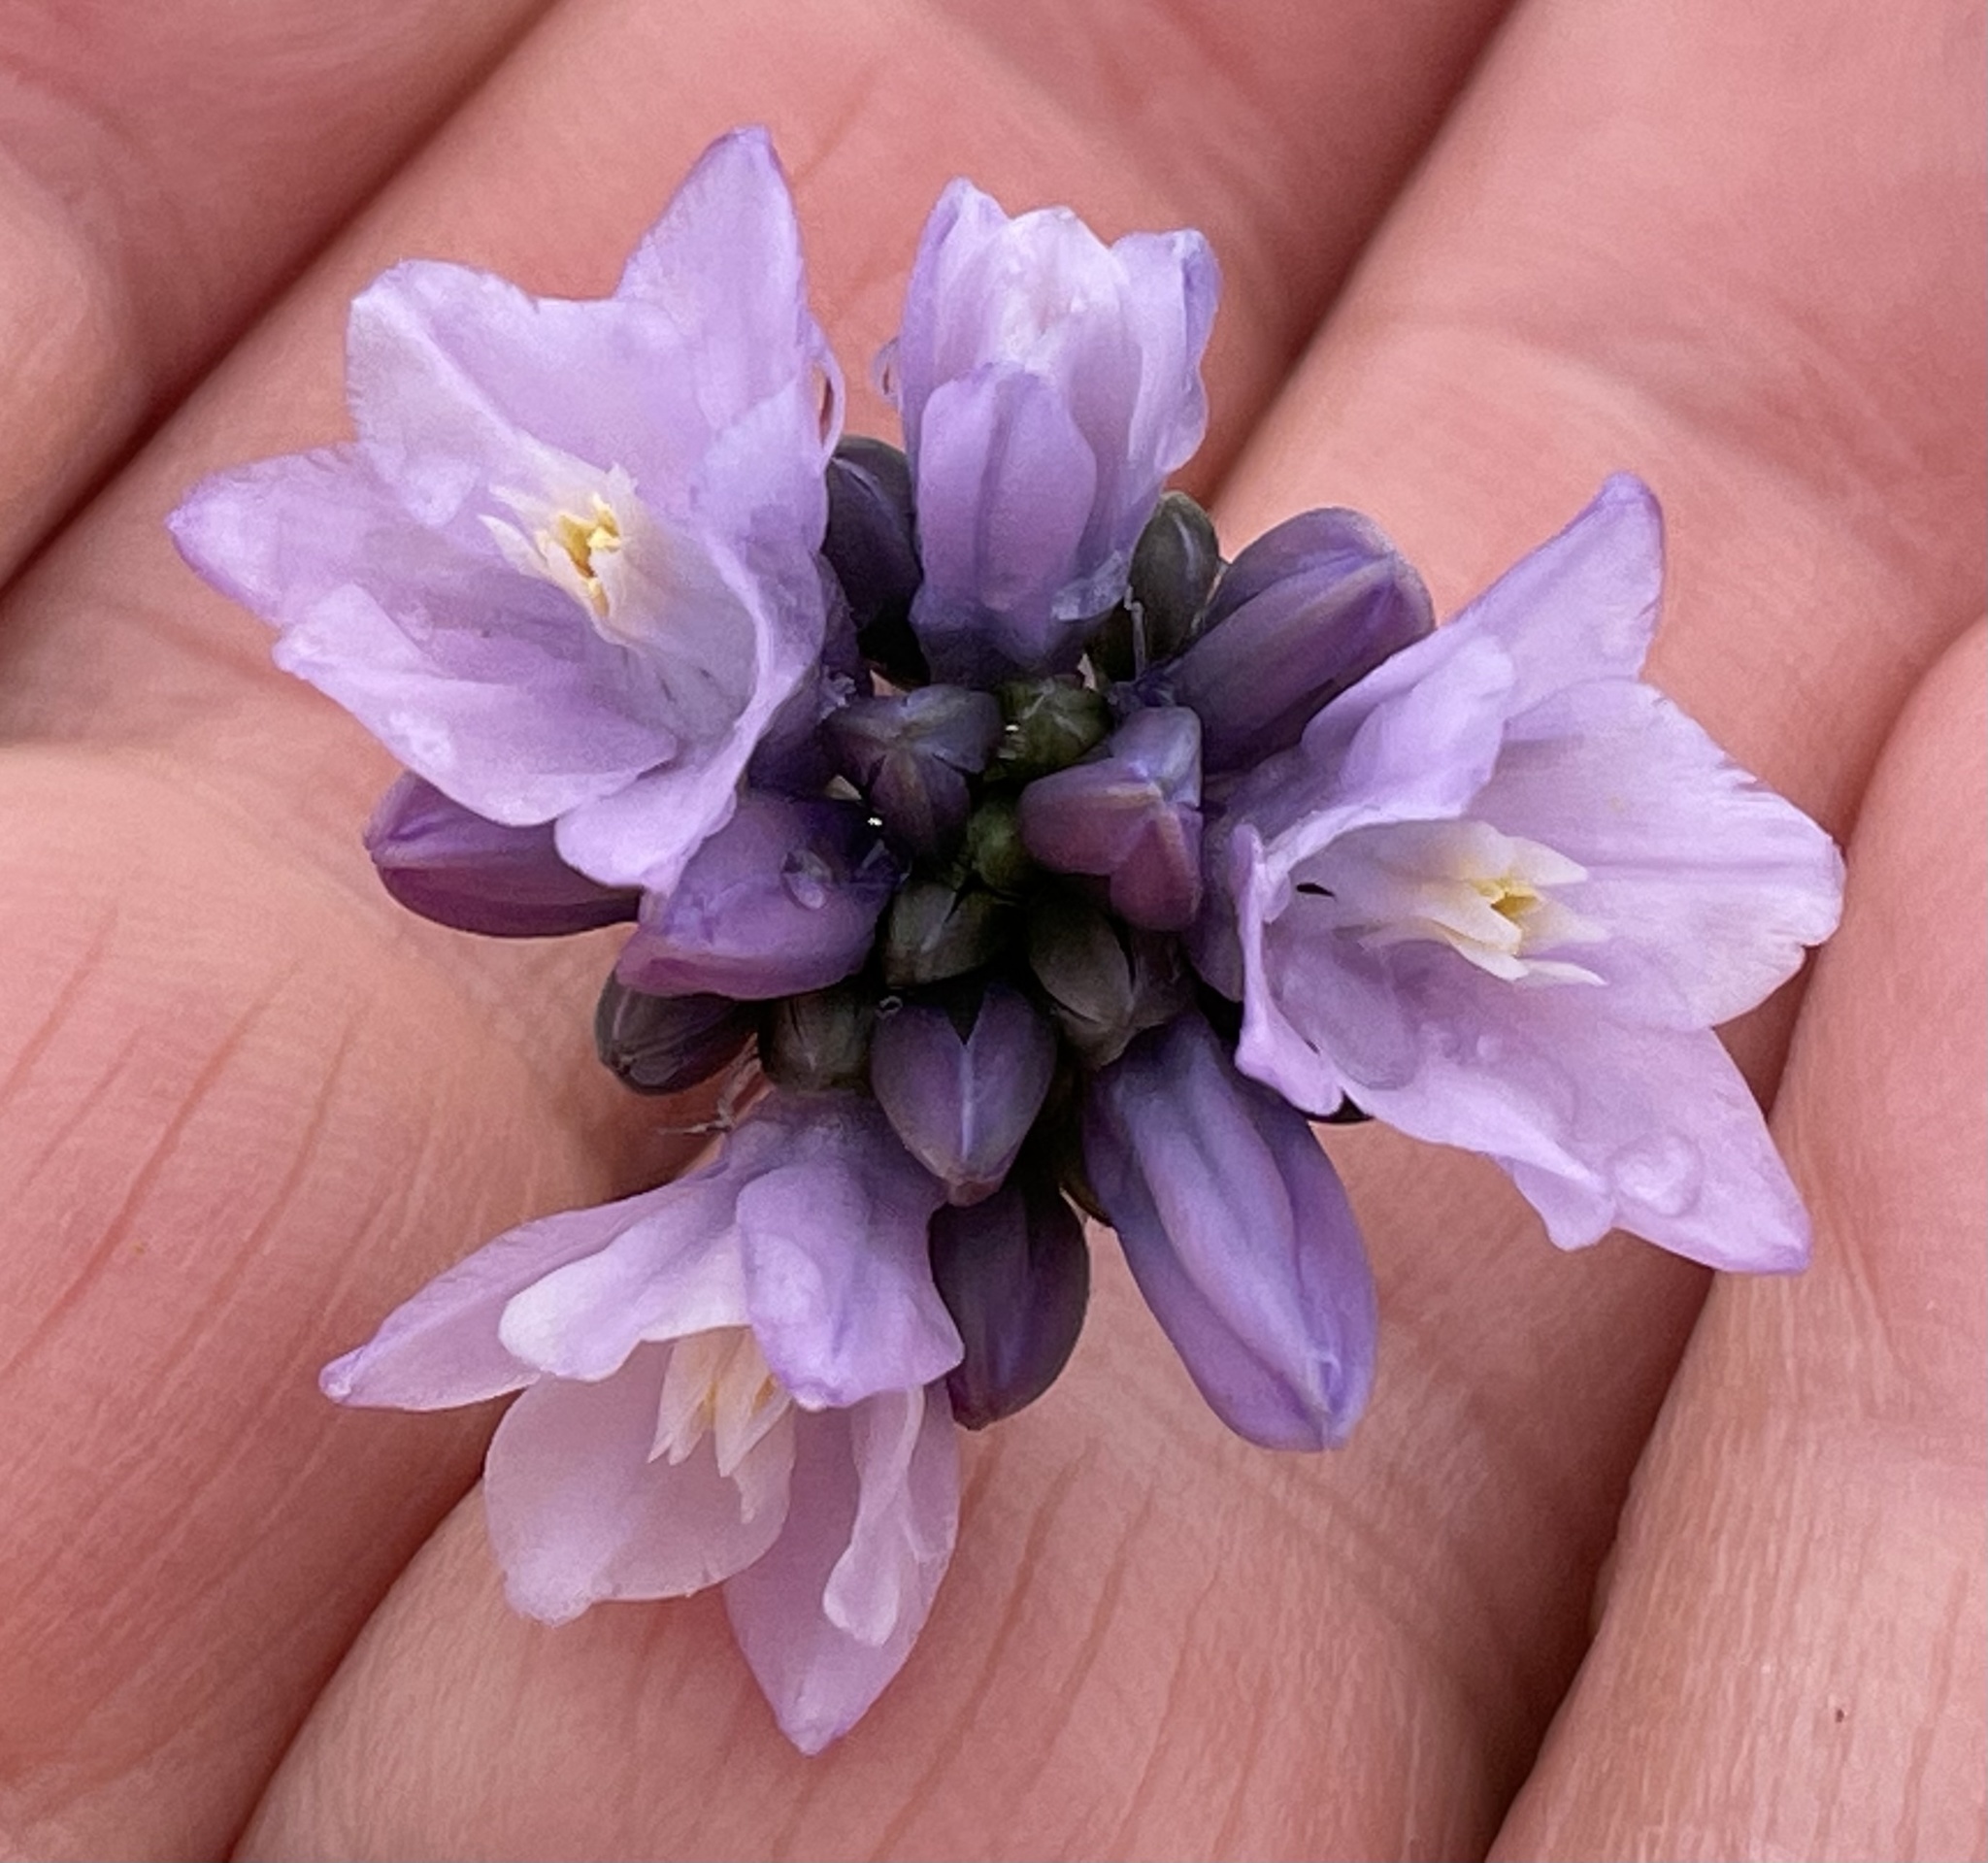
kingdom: Plantae
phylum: Tracheophyta
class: Liliopsida
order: Asparagales
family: Asparagaceae
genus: Dipterostemon
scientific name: Dipterostemon capitatus
